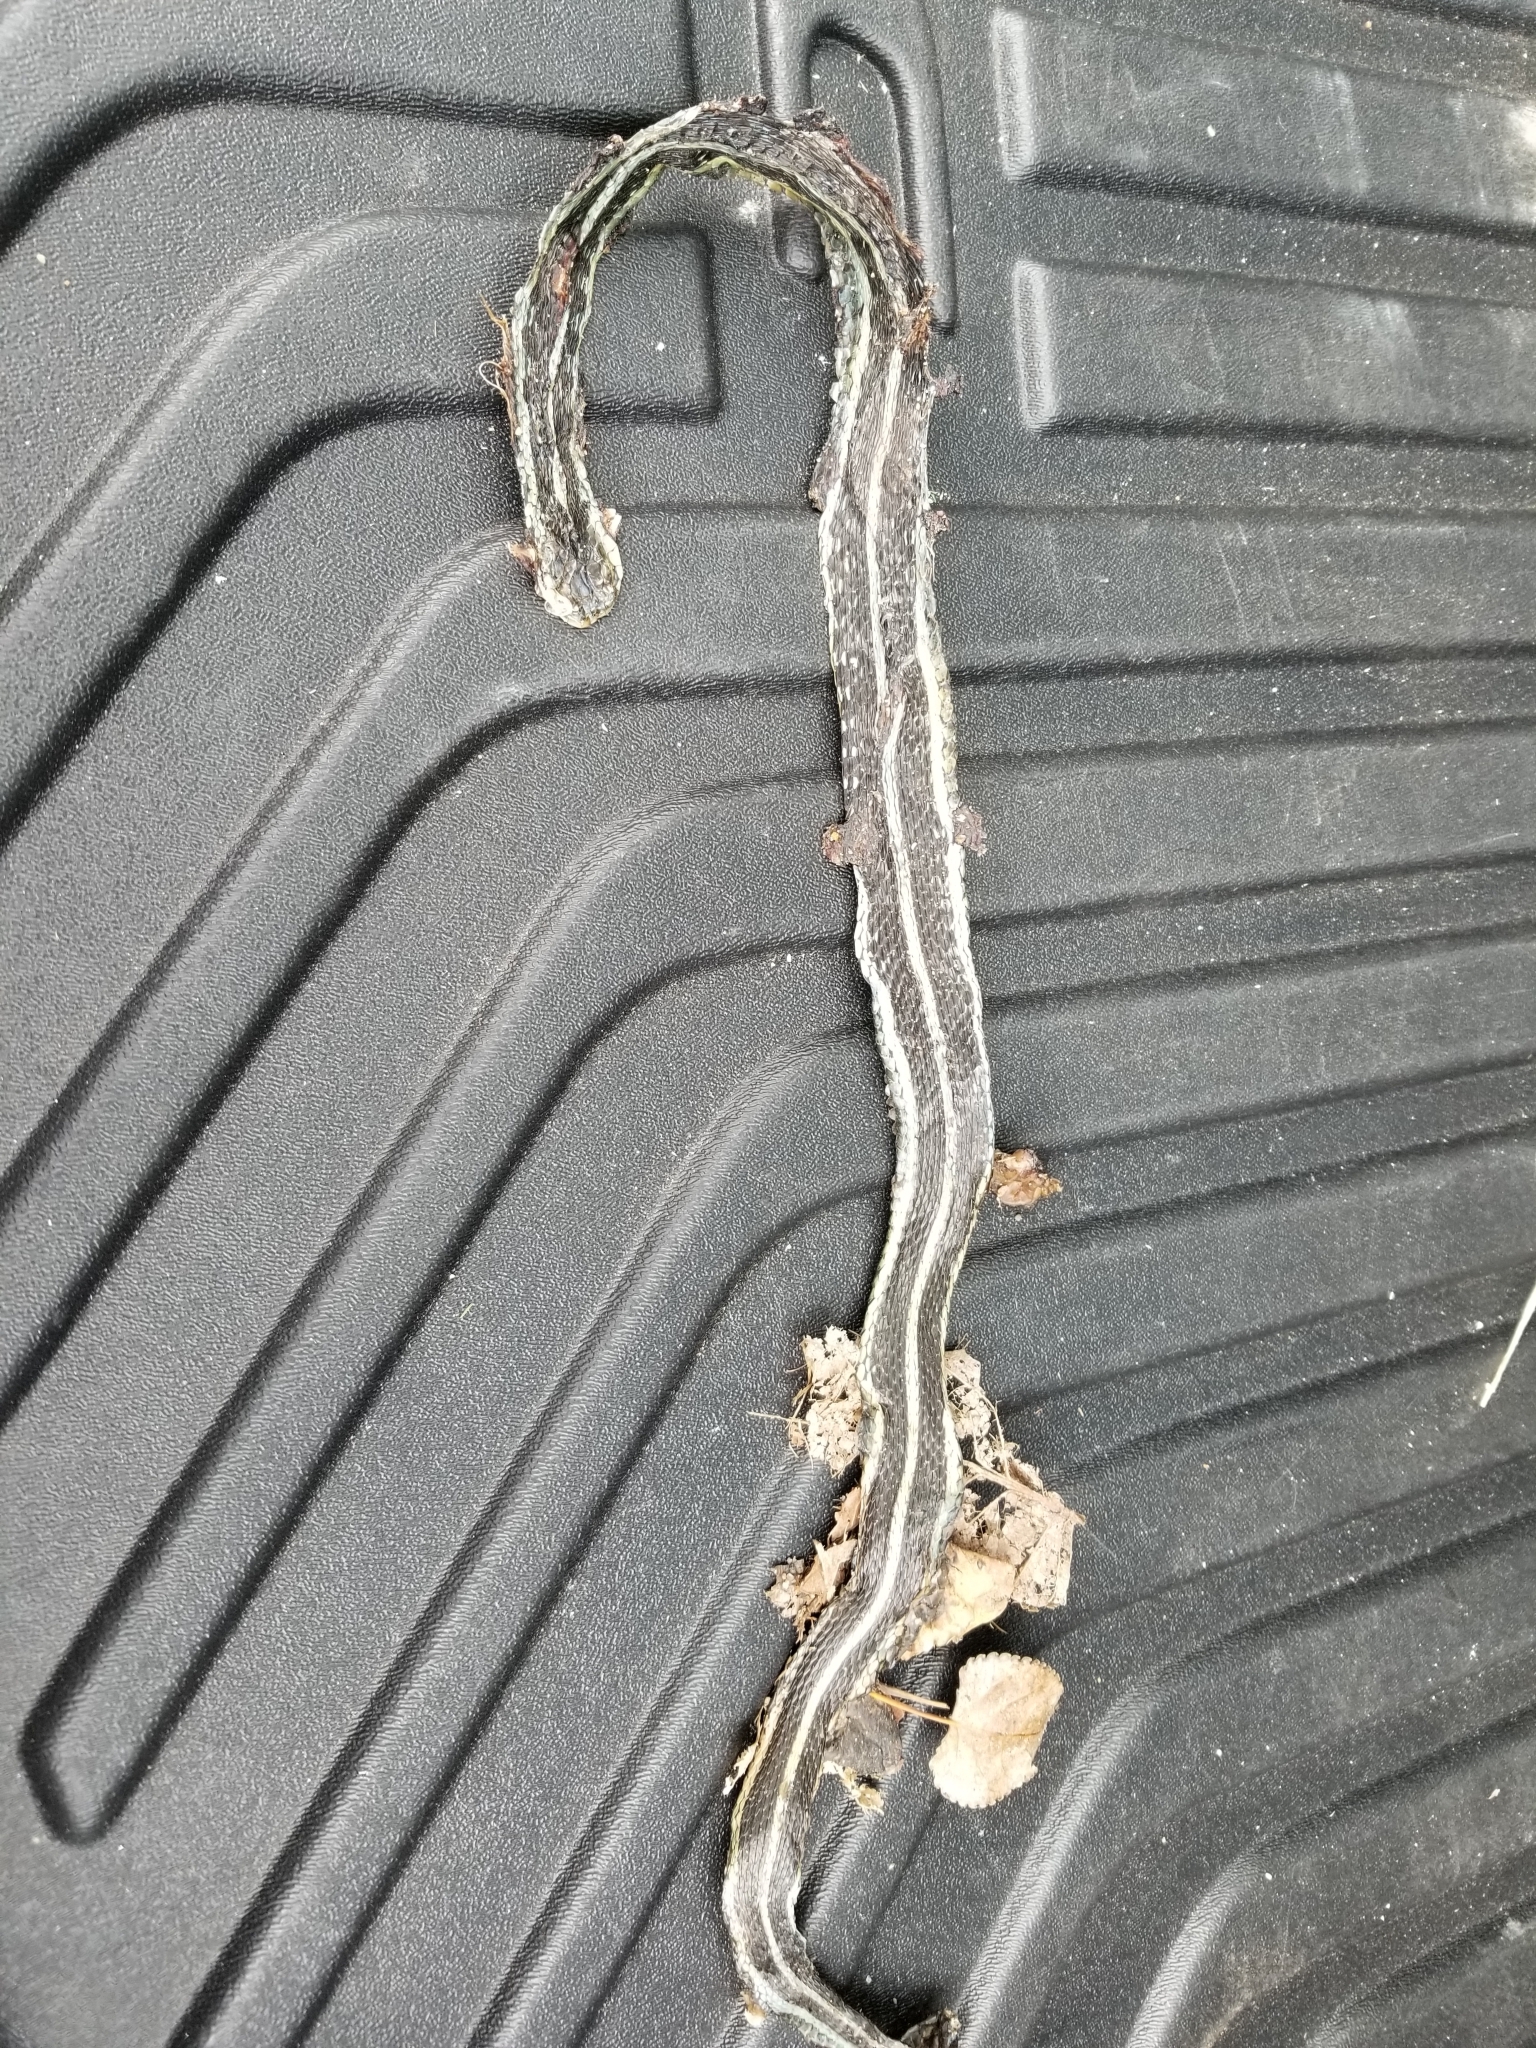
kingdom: Animalia
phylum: Chordata
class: Squamata
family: Colubridae
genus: Thamnophis
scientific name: Thamnophis sirtalis
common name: Common garter snake
